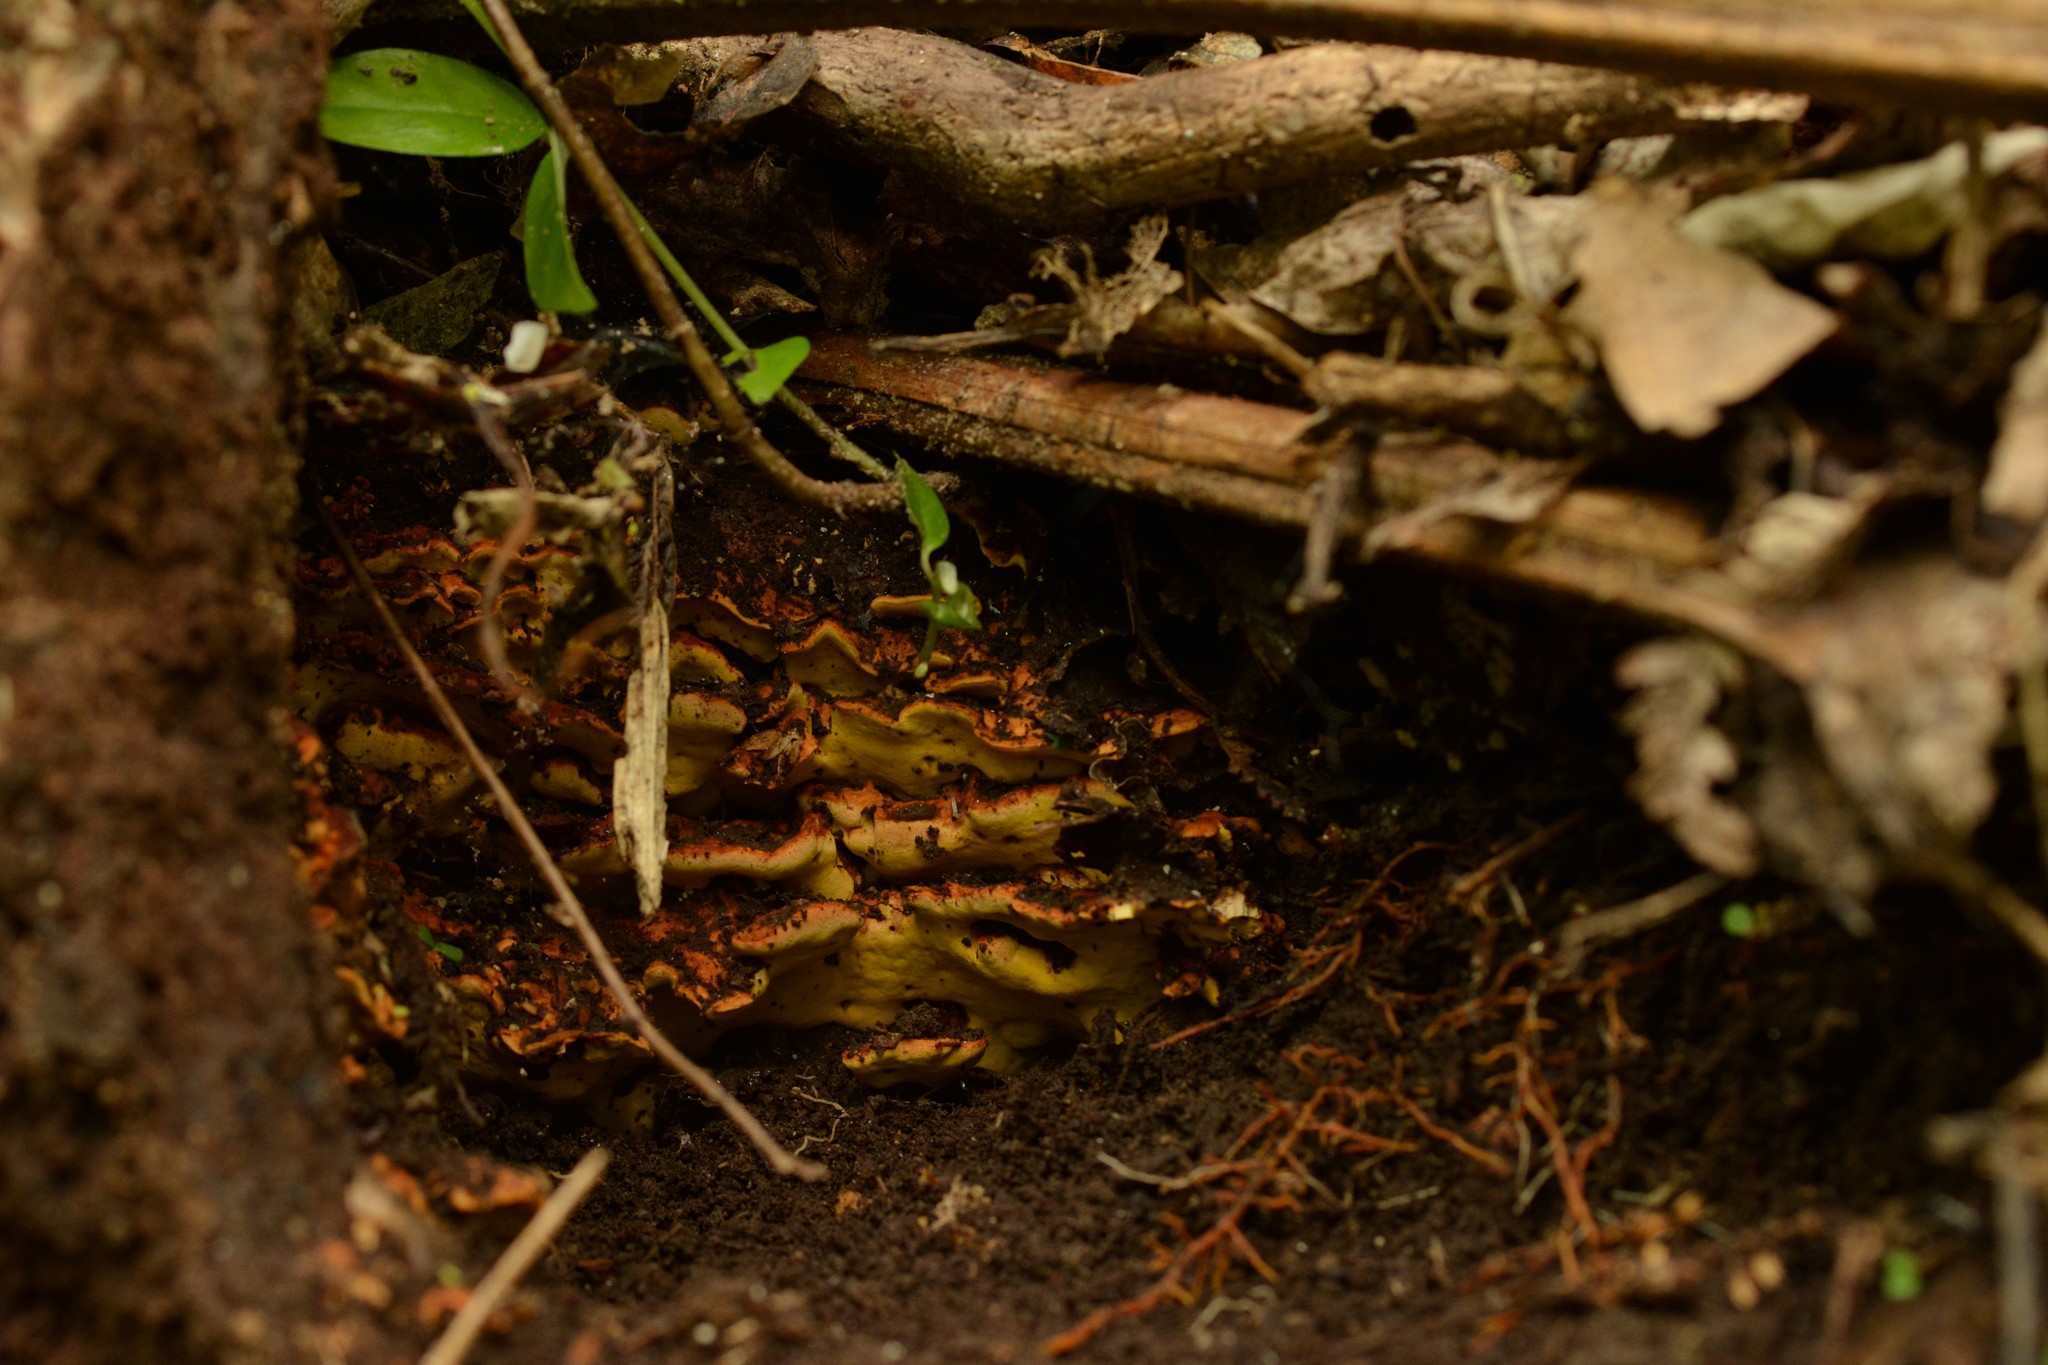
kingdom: Fungi
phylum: Basidiomycota
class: Agaricomycetes
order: Polyporales
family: Steccherinaceae
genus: Flaviporus
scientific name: Flaviporus brownii
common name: Yellowpored bracket
